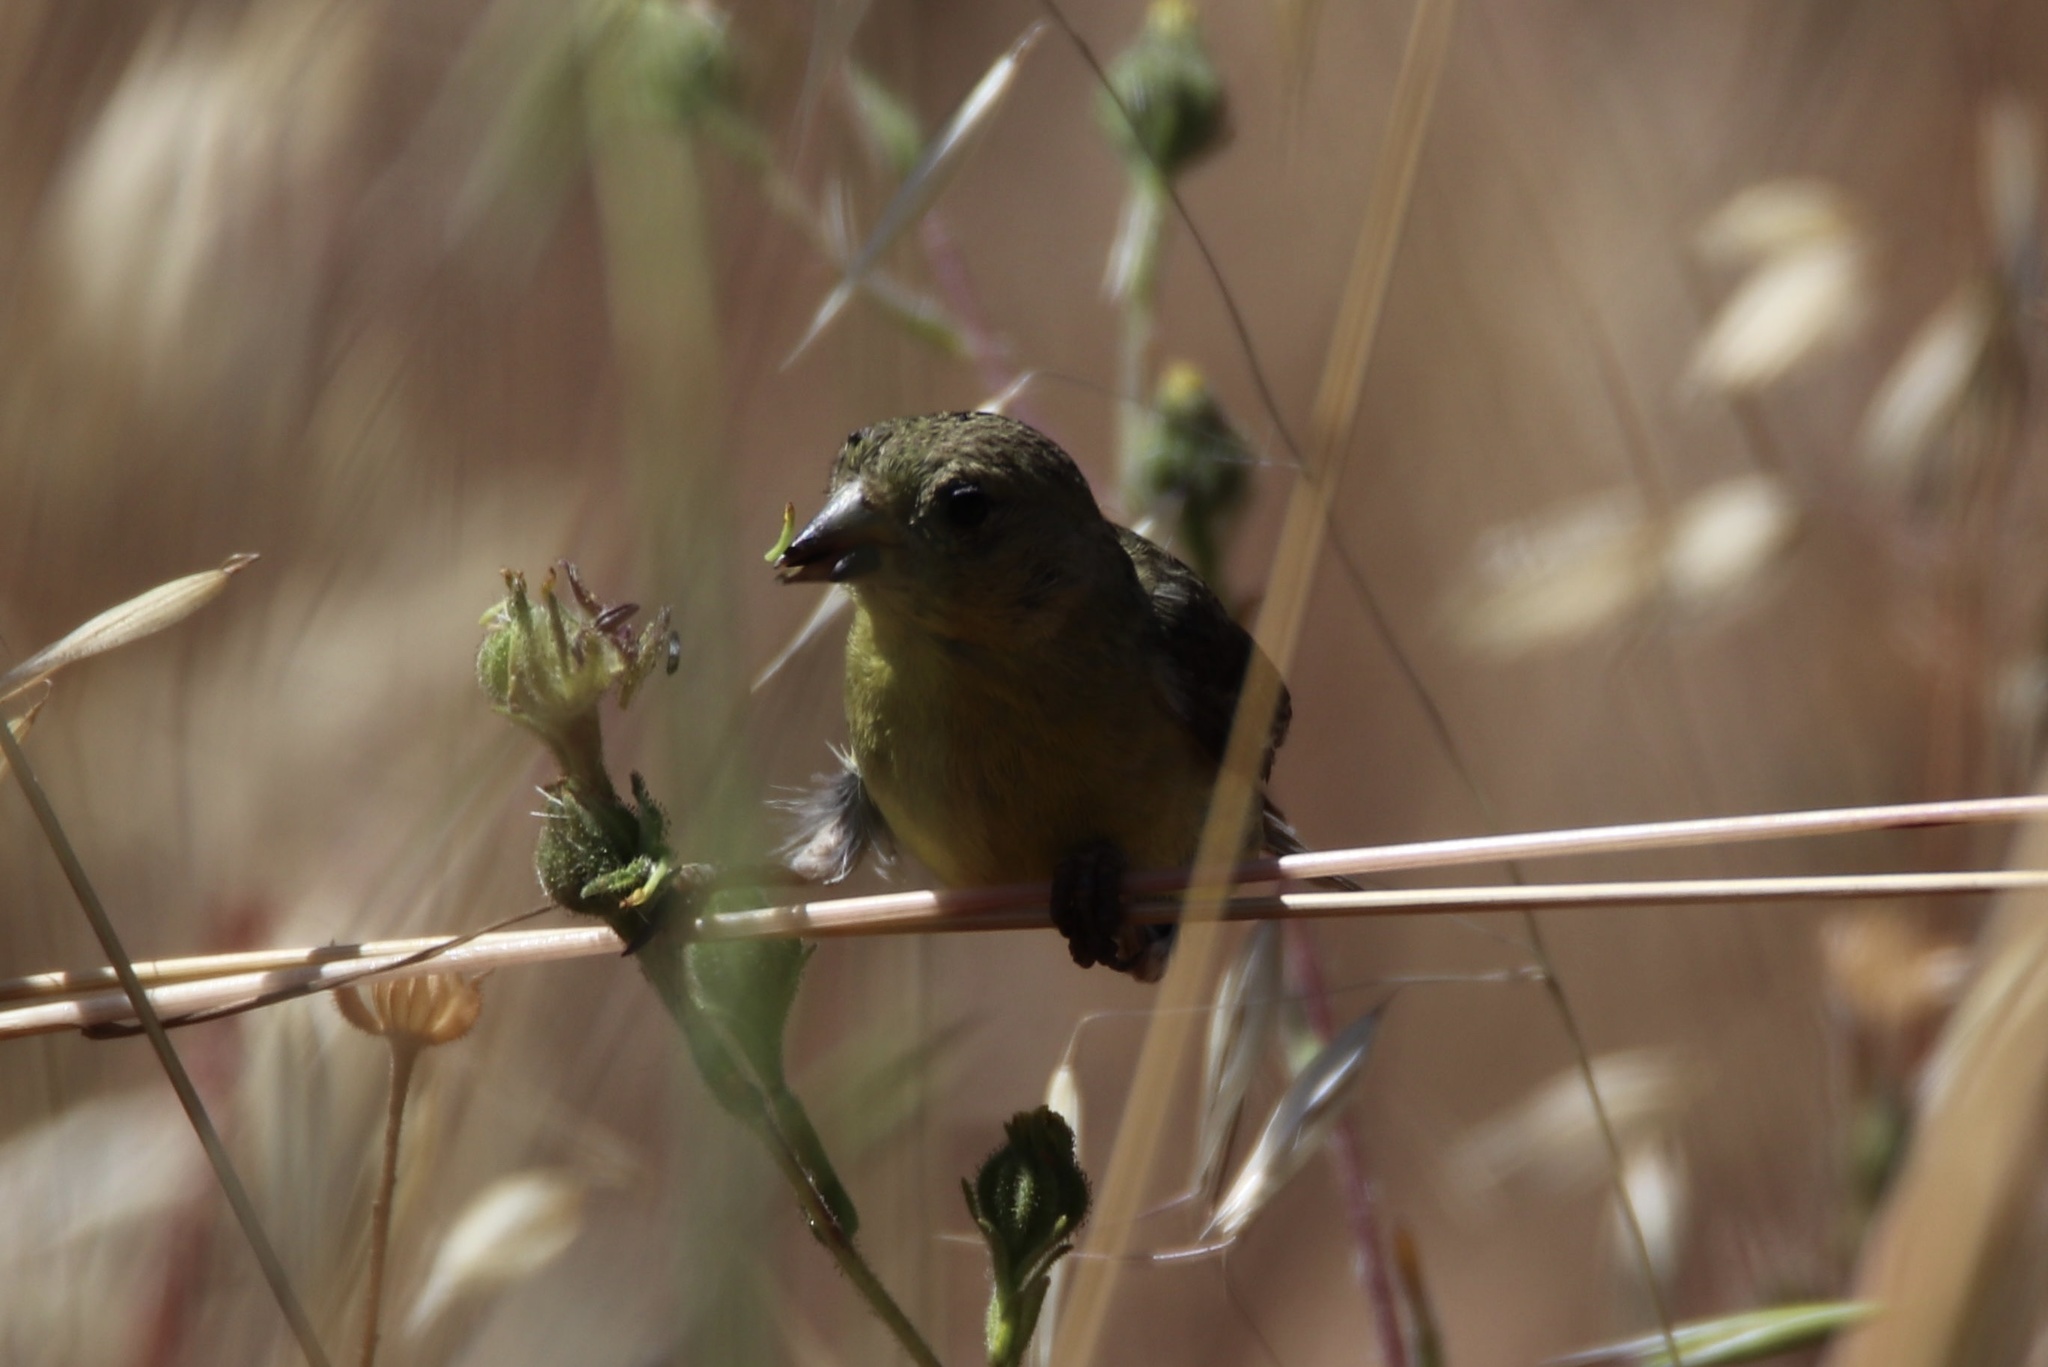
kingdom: Animalia
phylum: Chordata
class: Aves
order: Passeriformes
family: Fringillidae
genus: Spinus
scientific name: Spinus psaltria
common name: Lesser goldfinch
